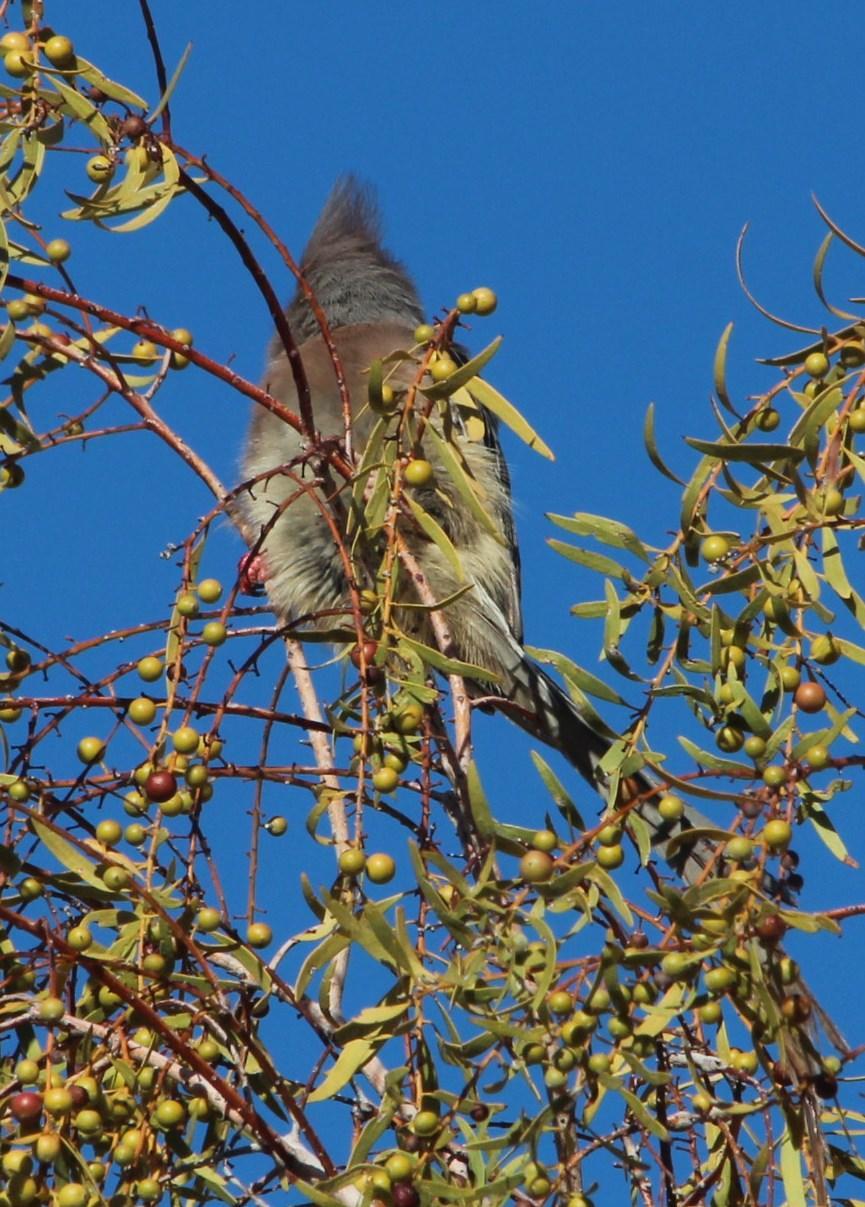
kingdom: Animalia
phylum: Chordata
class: Aves
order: Coliiformes
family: Coliidae
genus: Colius
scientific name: Colius colius
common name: White-backed mousebird
